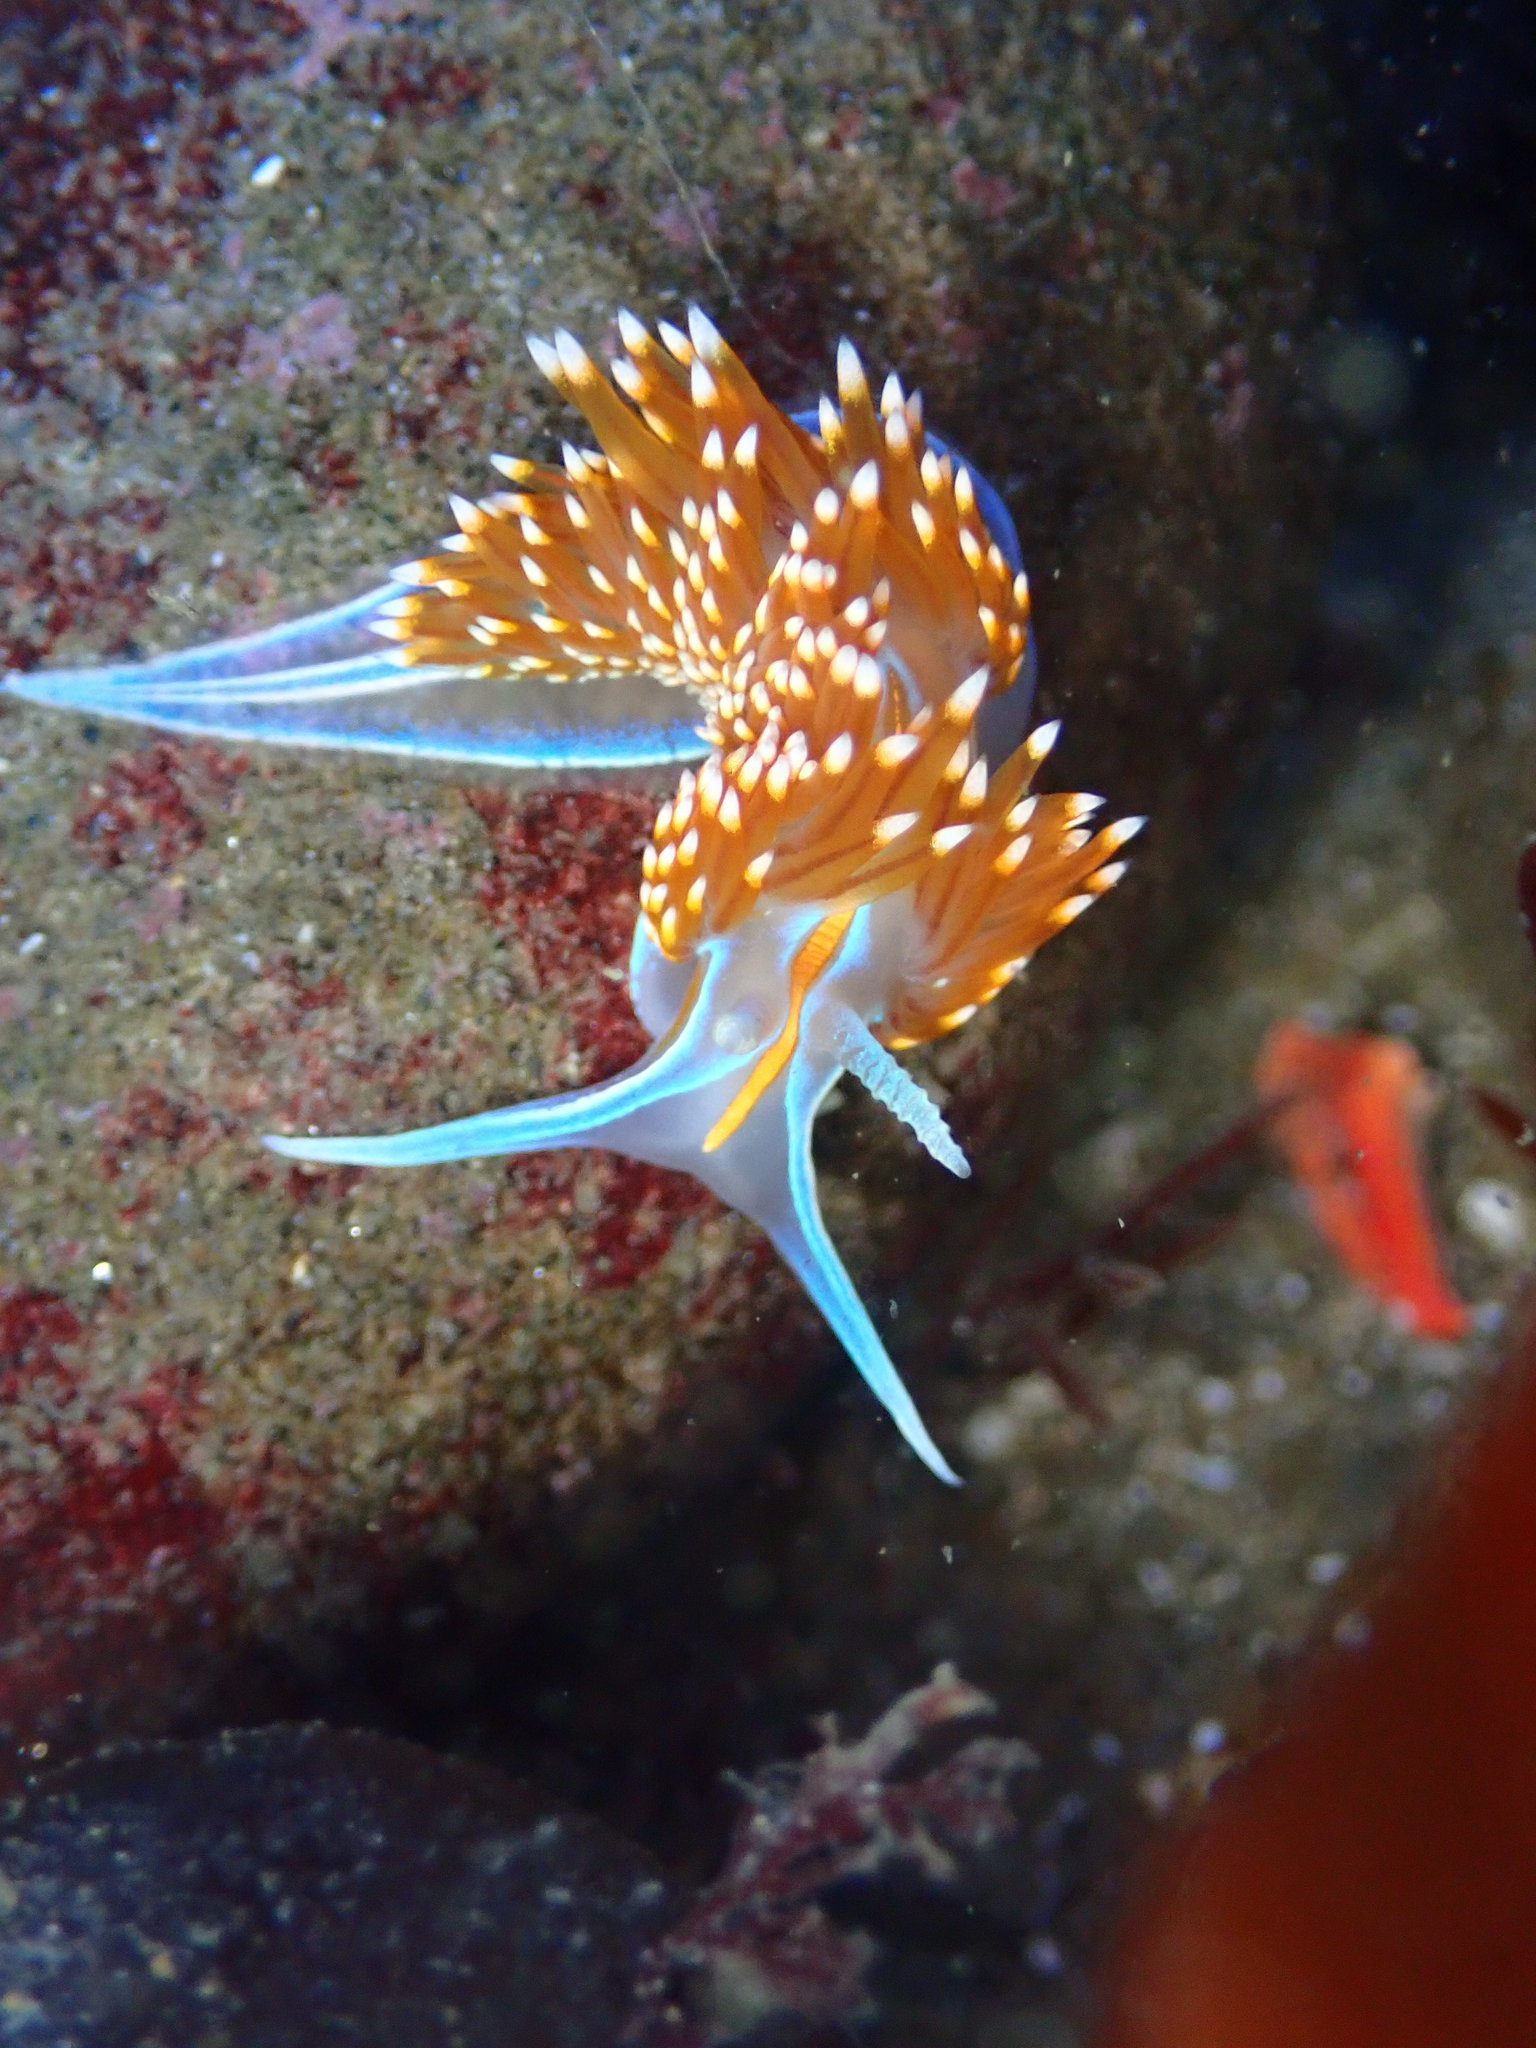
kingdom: Animalia
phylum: Mollusca
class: Gastropoda
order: Nudibranchia
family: Myrrhinidae
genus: Hermissenda
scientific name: Hermissenda opalescens
